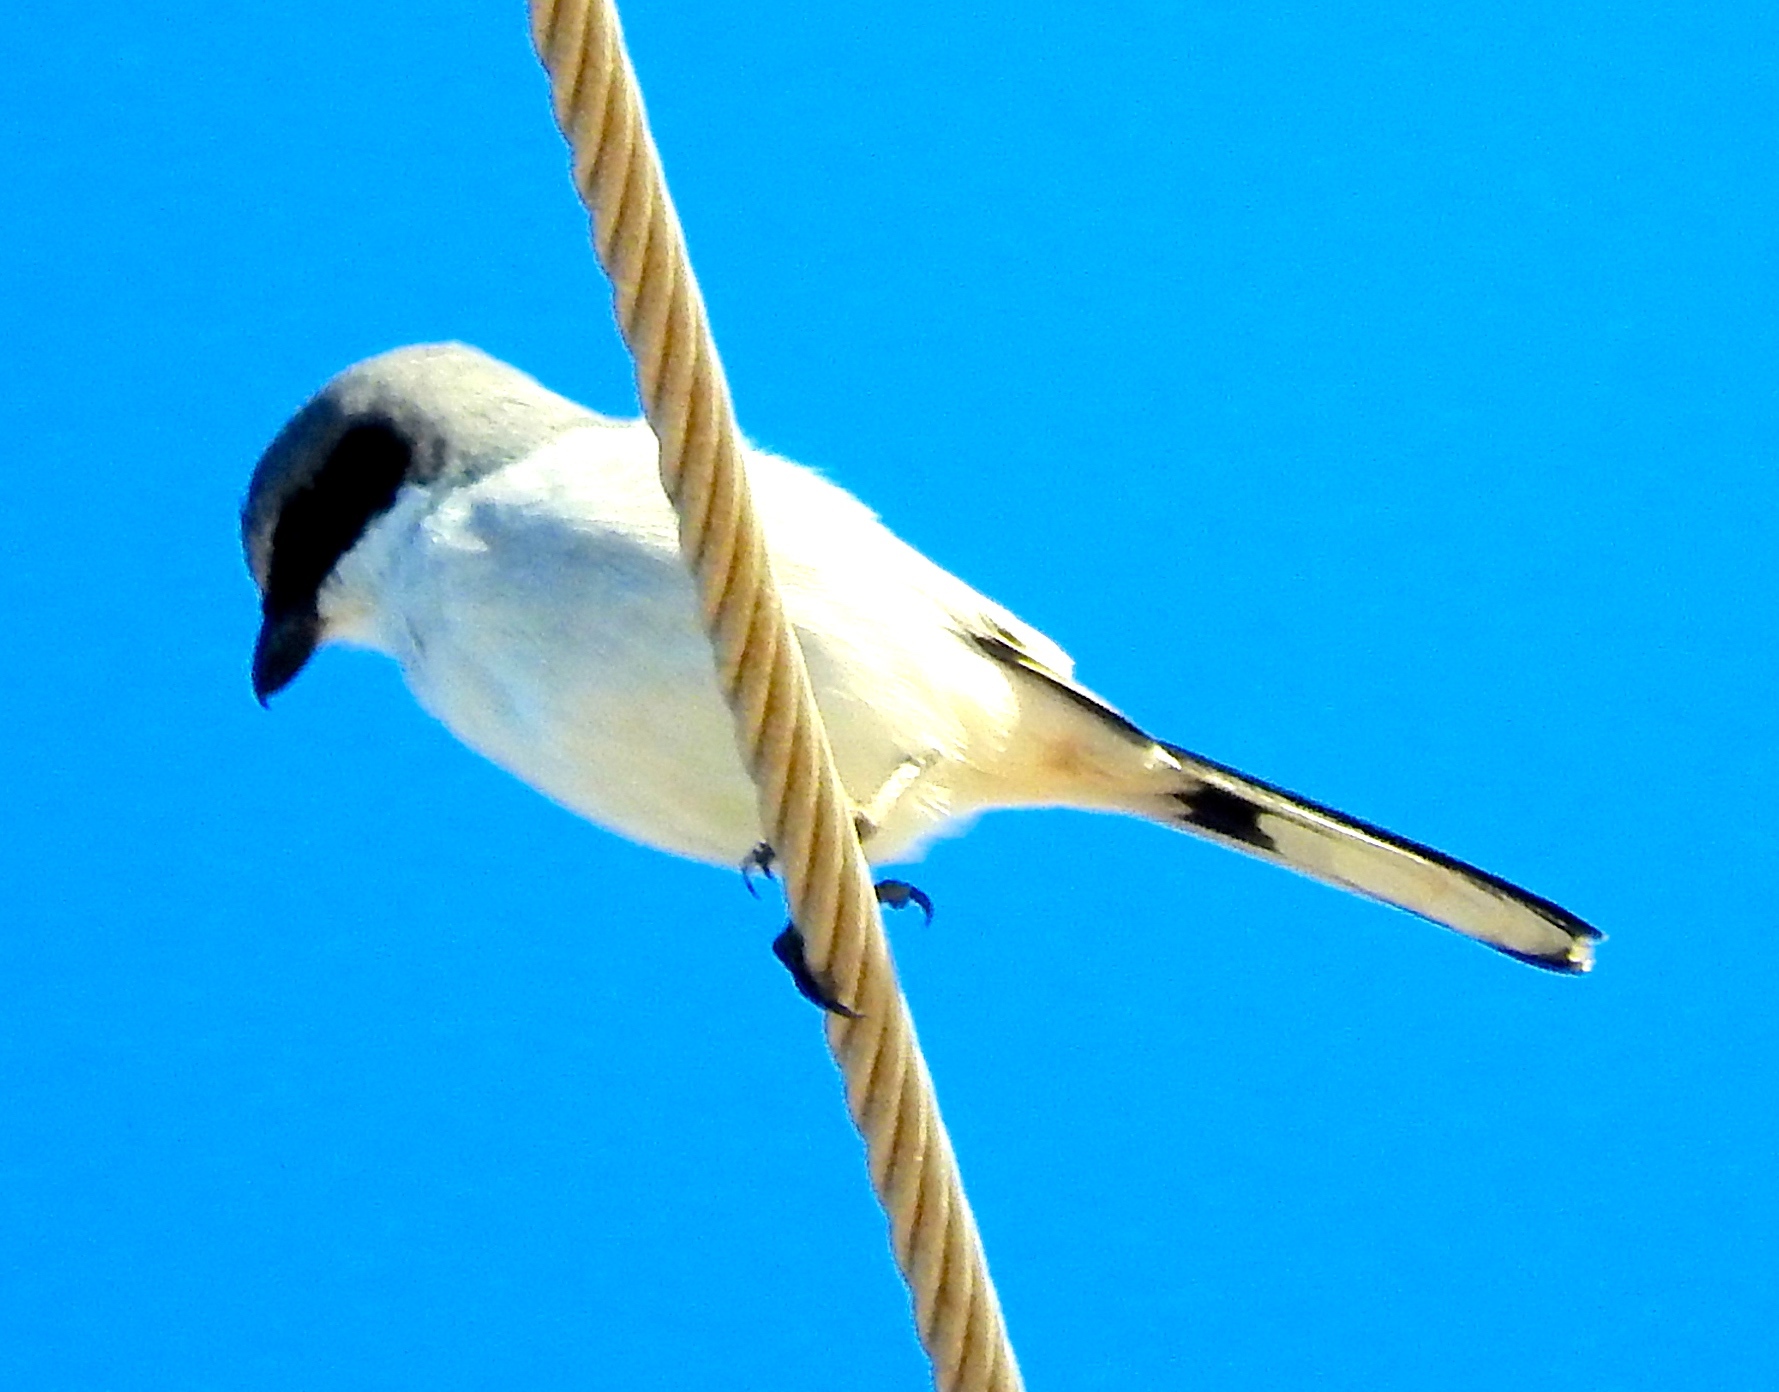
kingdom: Animalia
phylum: Chordata
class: Aves
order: Passeriformes
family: Laniidae
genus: Lanius
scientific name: Lanius ludovicianus
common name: Loggerhead shrike
